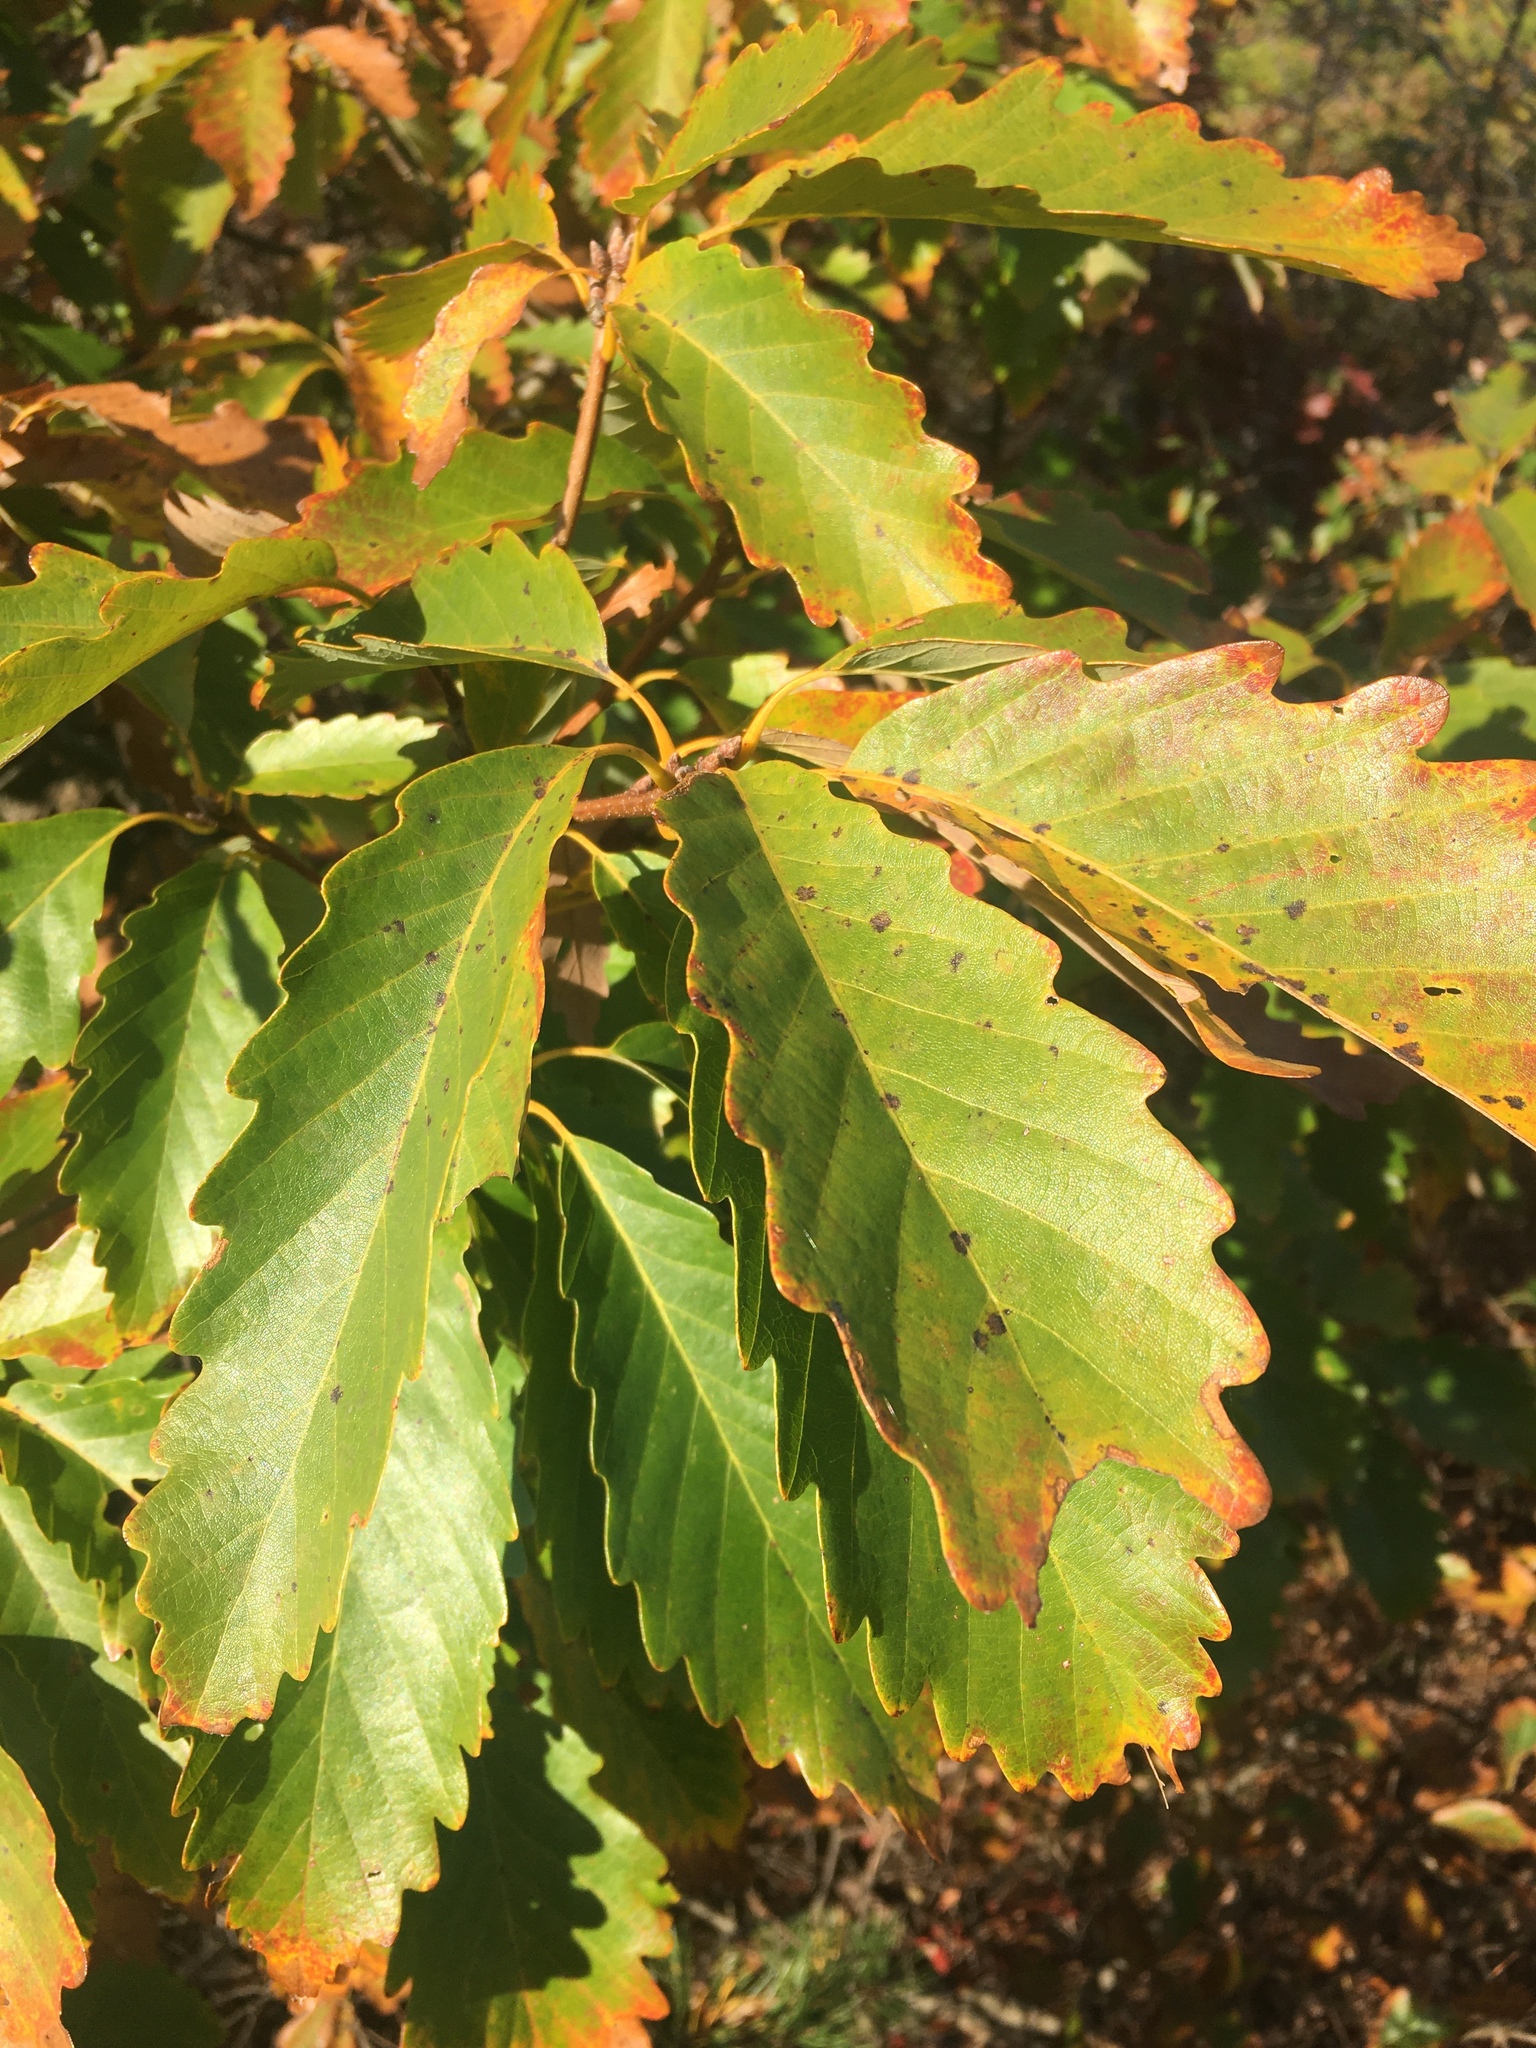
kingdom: Plantae
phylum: Tracheophyta
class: Magnoliopsida
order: Fagales
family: Fagaceae
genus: Quercus
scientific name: Quercus montana
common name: Chestnut oak
